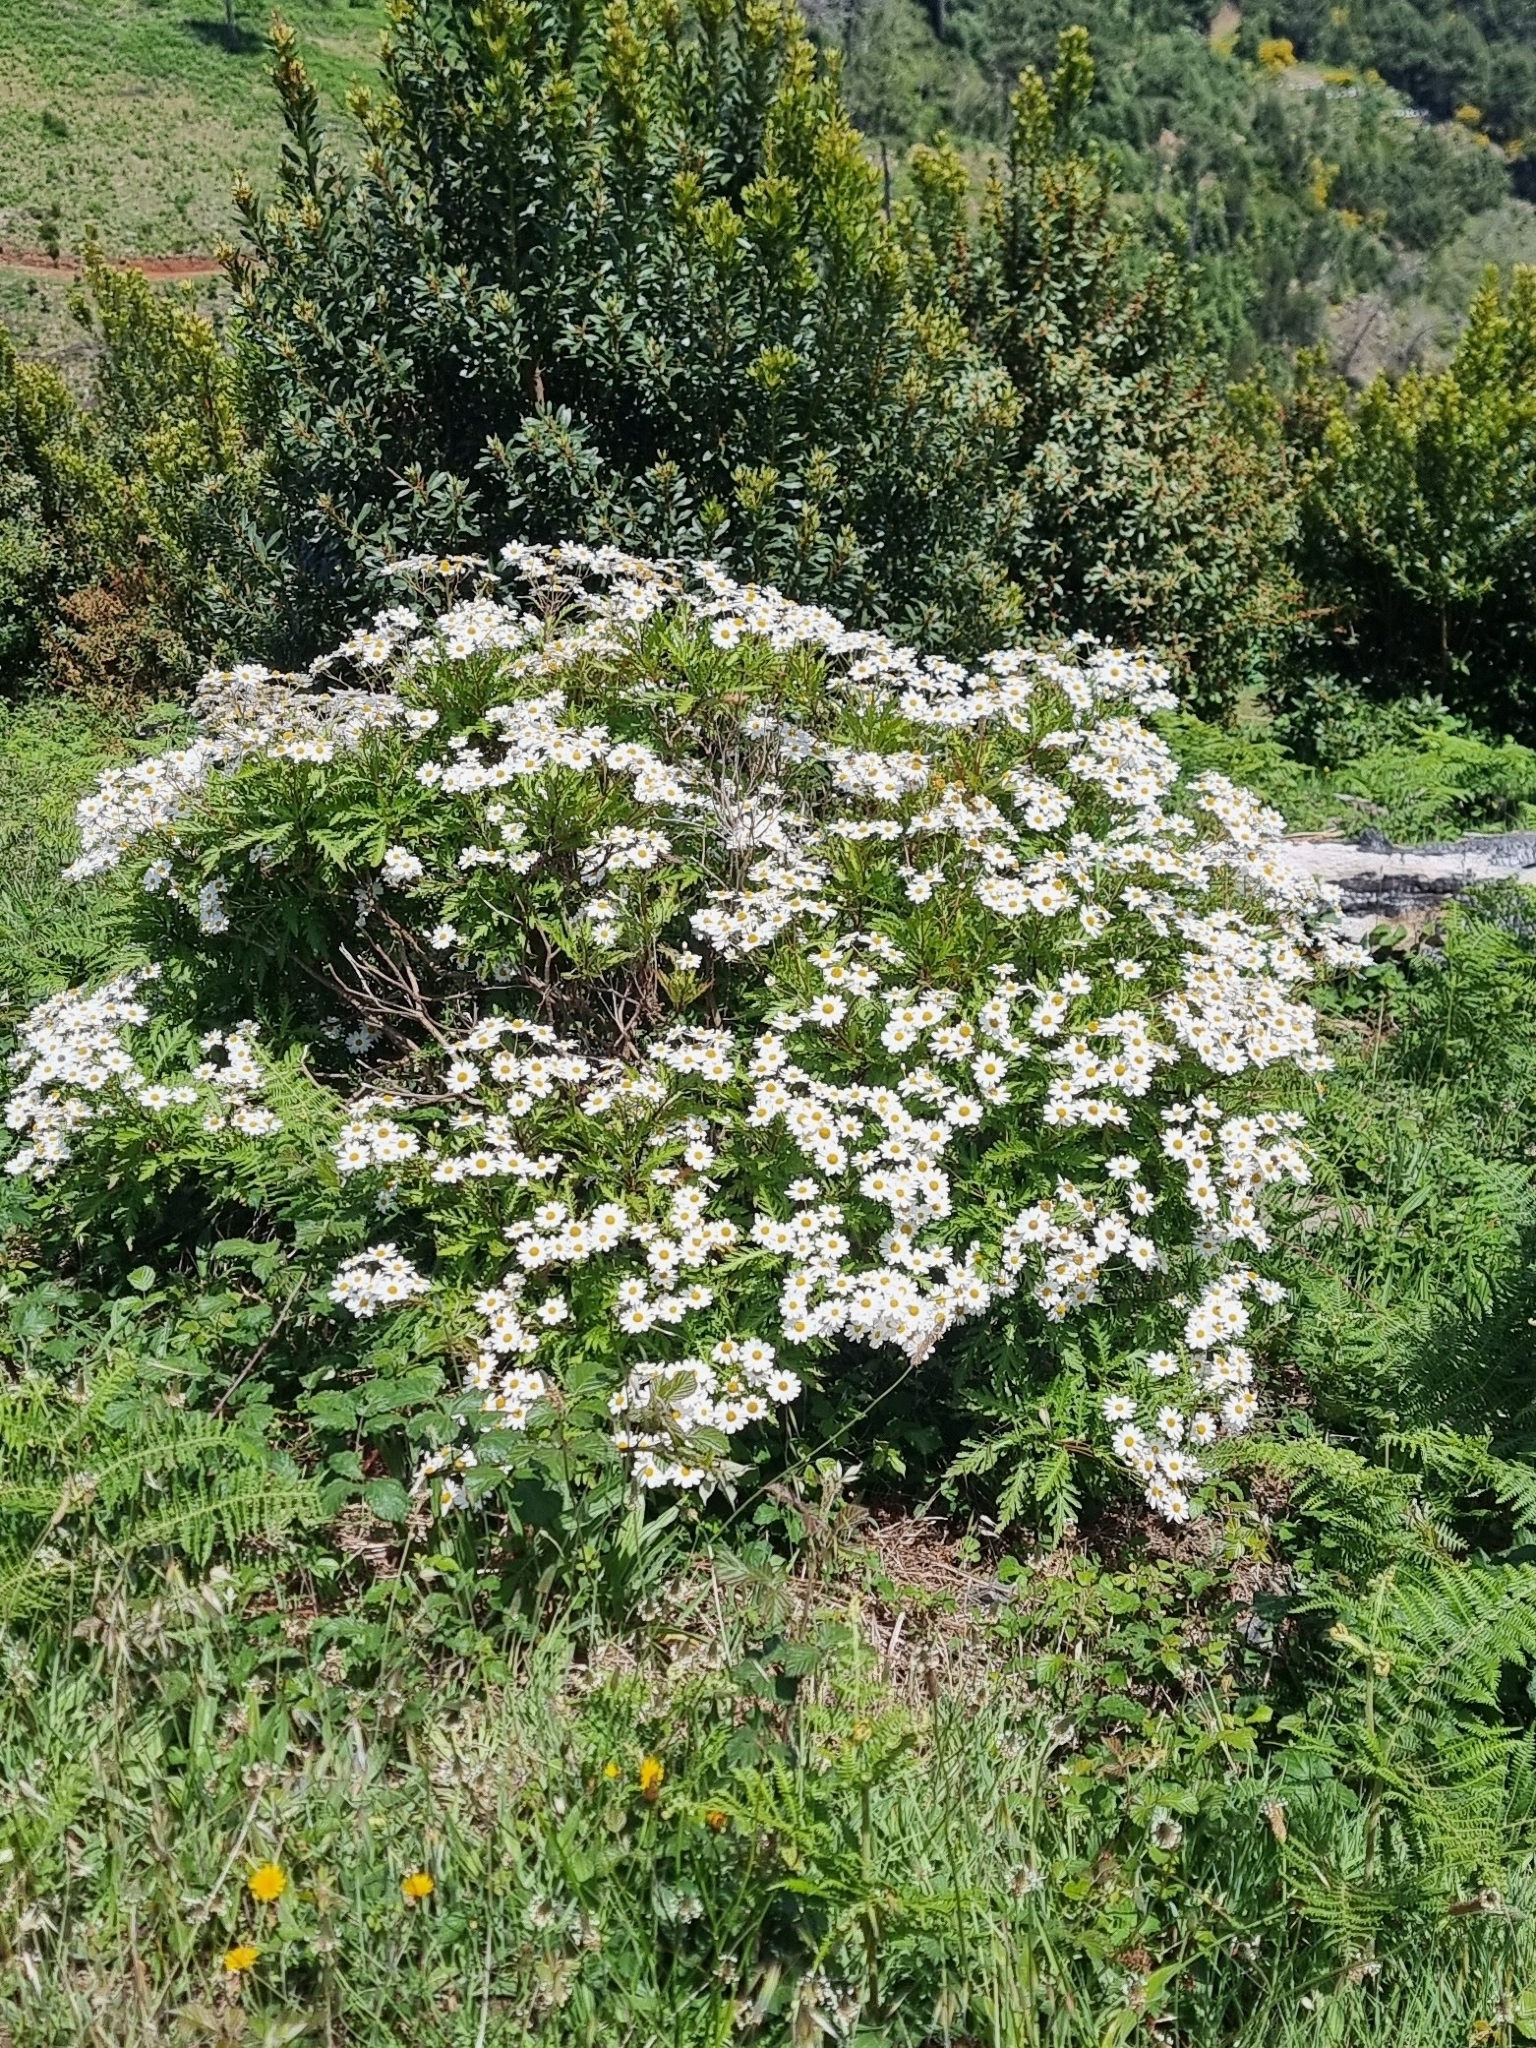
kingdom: Plantae
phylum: Tracheophyta
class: Magnoliopsida
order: Asterales
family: Asteraceae
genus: Argyranthemum
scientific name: Argyranthemum pinnatifidum
